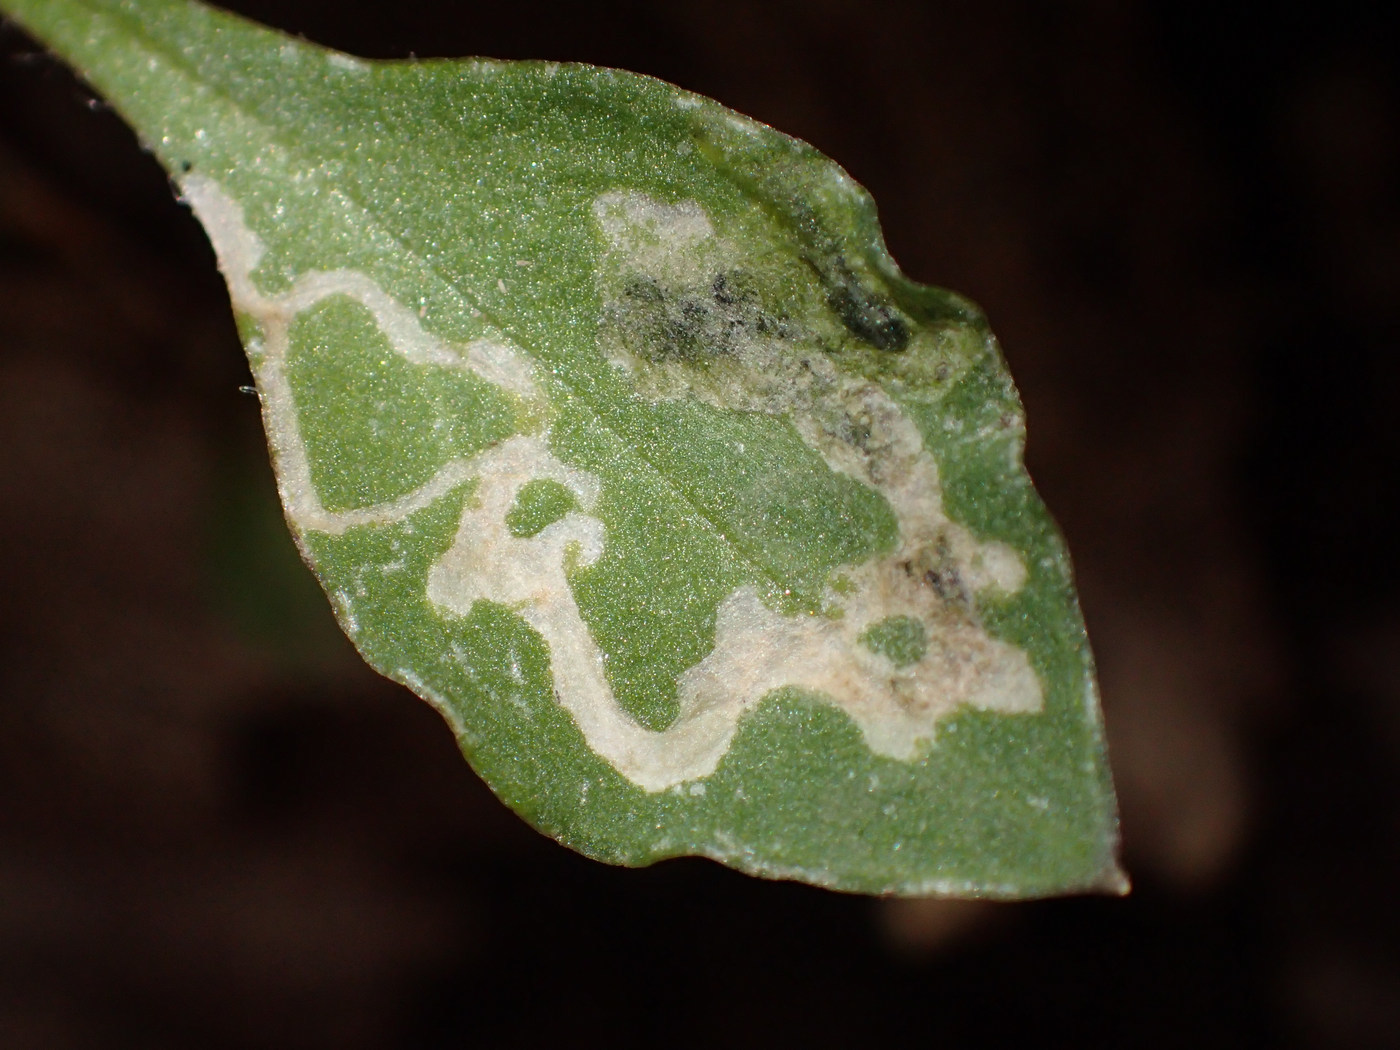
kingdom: Animalia
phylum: Arthropoda
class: Insecta
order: Diptera
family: Anthomyiidae
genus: Pegomya
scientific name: Pegomya flavifrons
